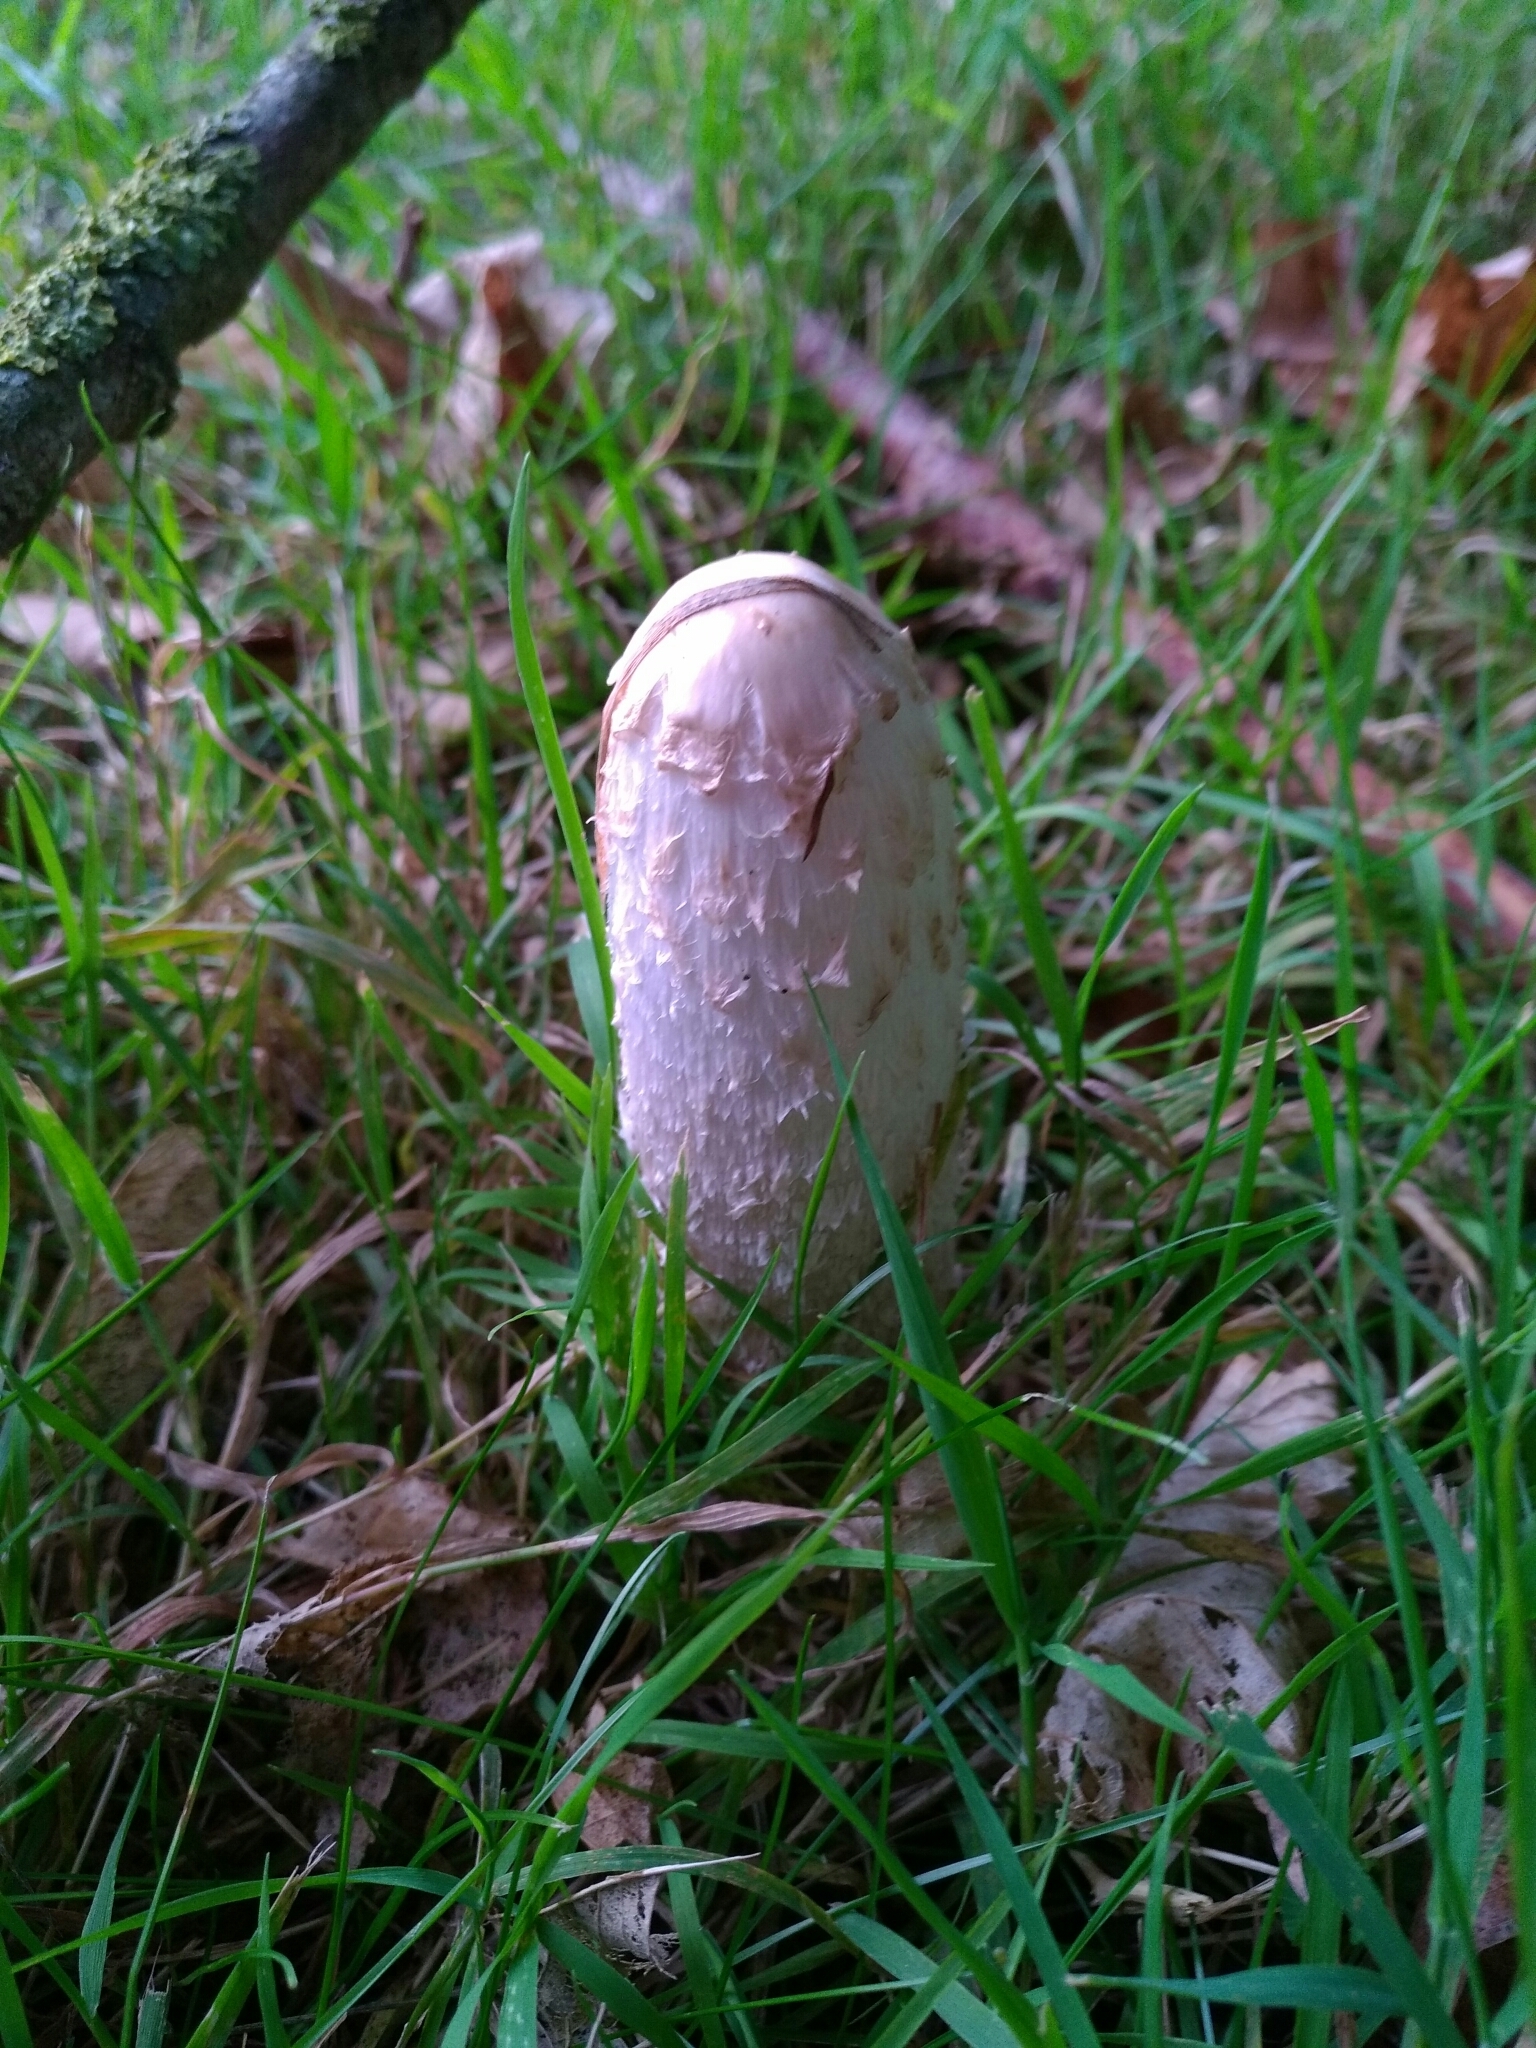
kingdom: Fungi
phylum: Basidiomycota
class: Agaricomycetes
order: Agaricales
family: Agaricaceae
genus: Coprinus
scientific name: Coprinus comatus
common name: Lawyer's wig
